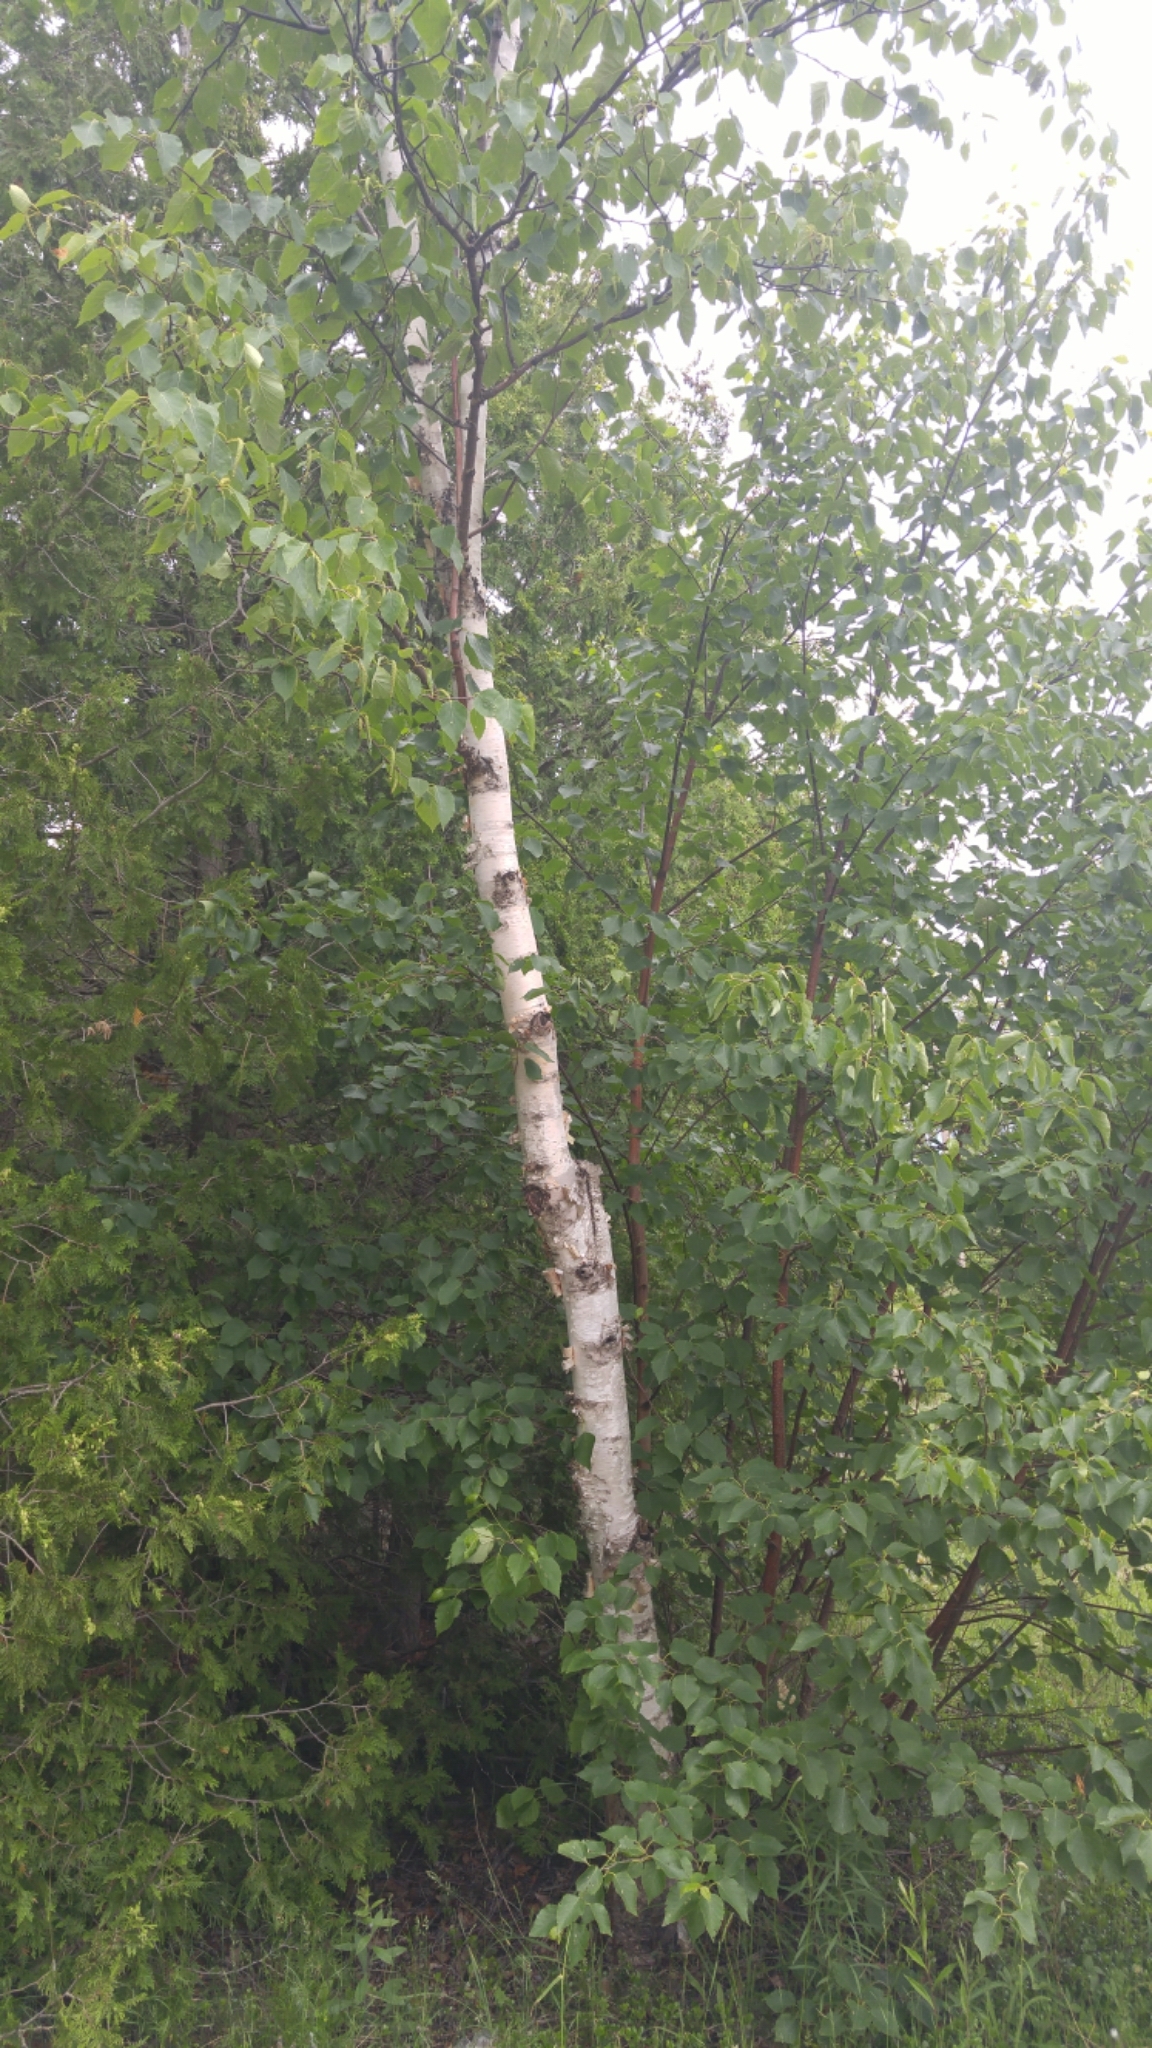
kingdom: Plantae
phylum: Tracheophyta
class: Magnoliopsida
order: Fagales
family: Betulaceae
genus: Betula
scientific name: Betula papyrifera
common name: Paper birch
